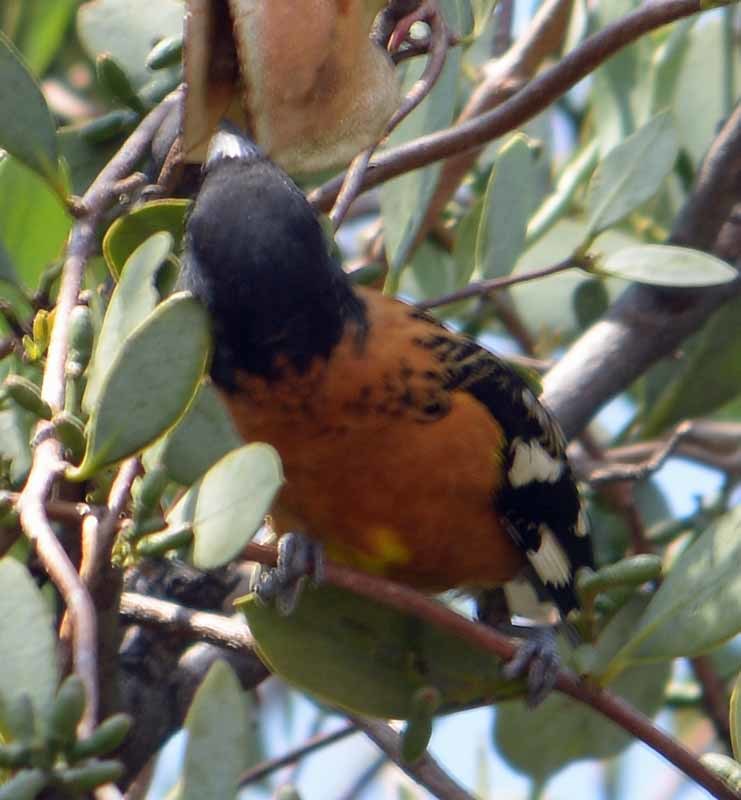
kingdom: Animalia
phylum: Chordata
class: Aves
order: Passeriformes
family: Cardinalidae
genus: Pheucticus
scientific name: Pheucticus melanocephalus
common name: Black-headed grosbeak
